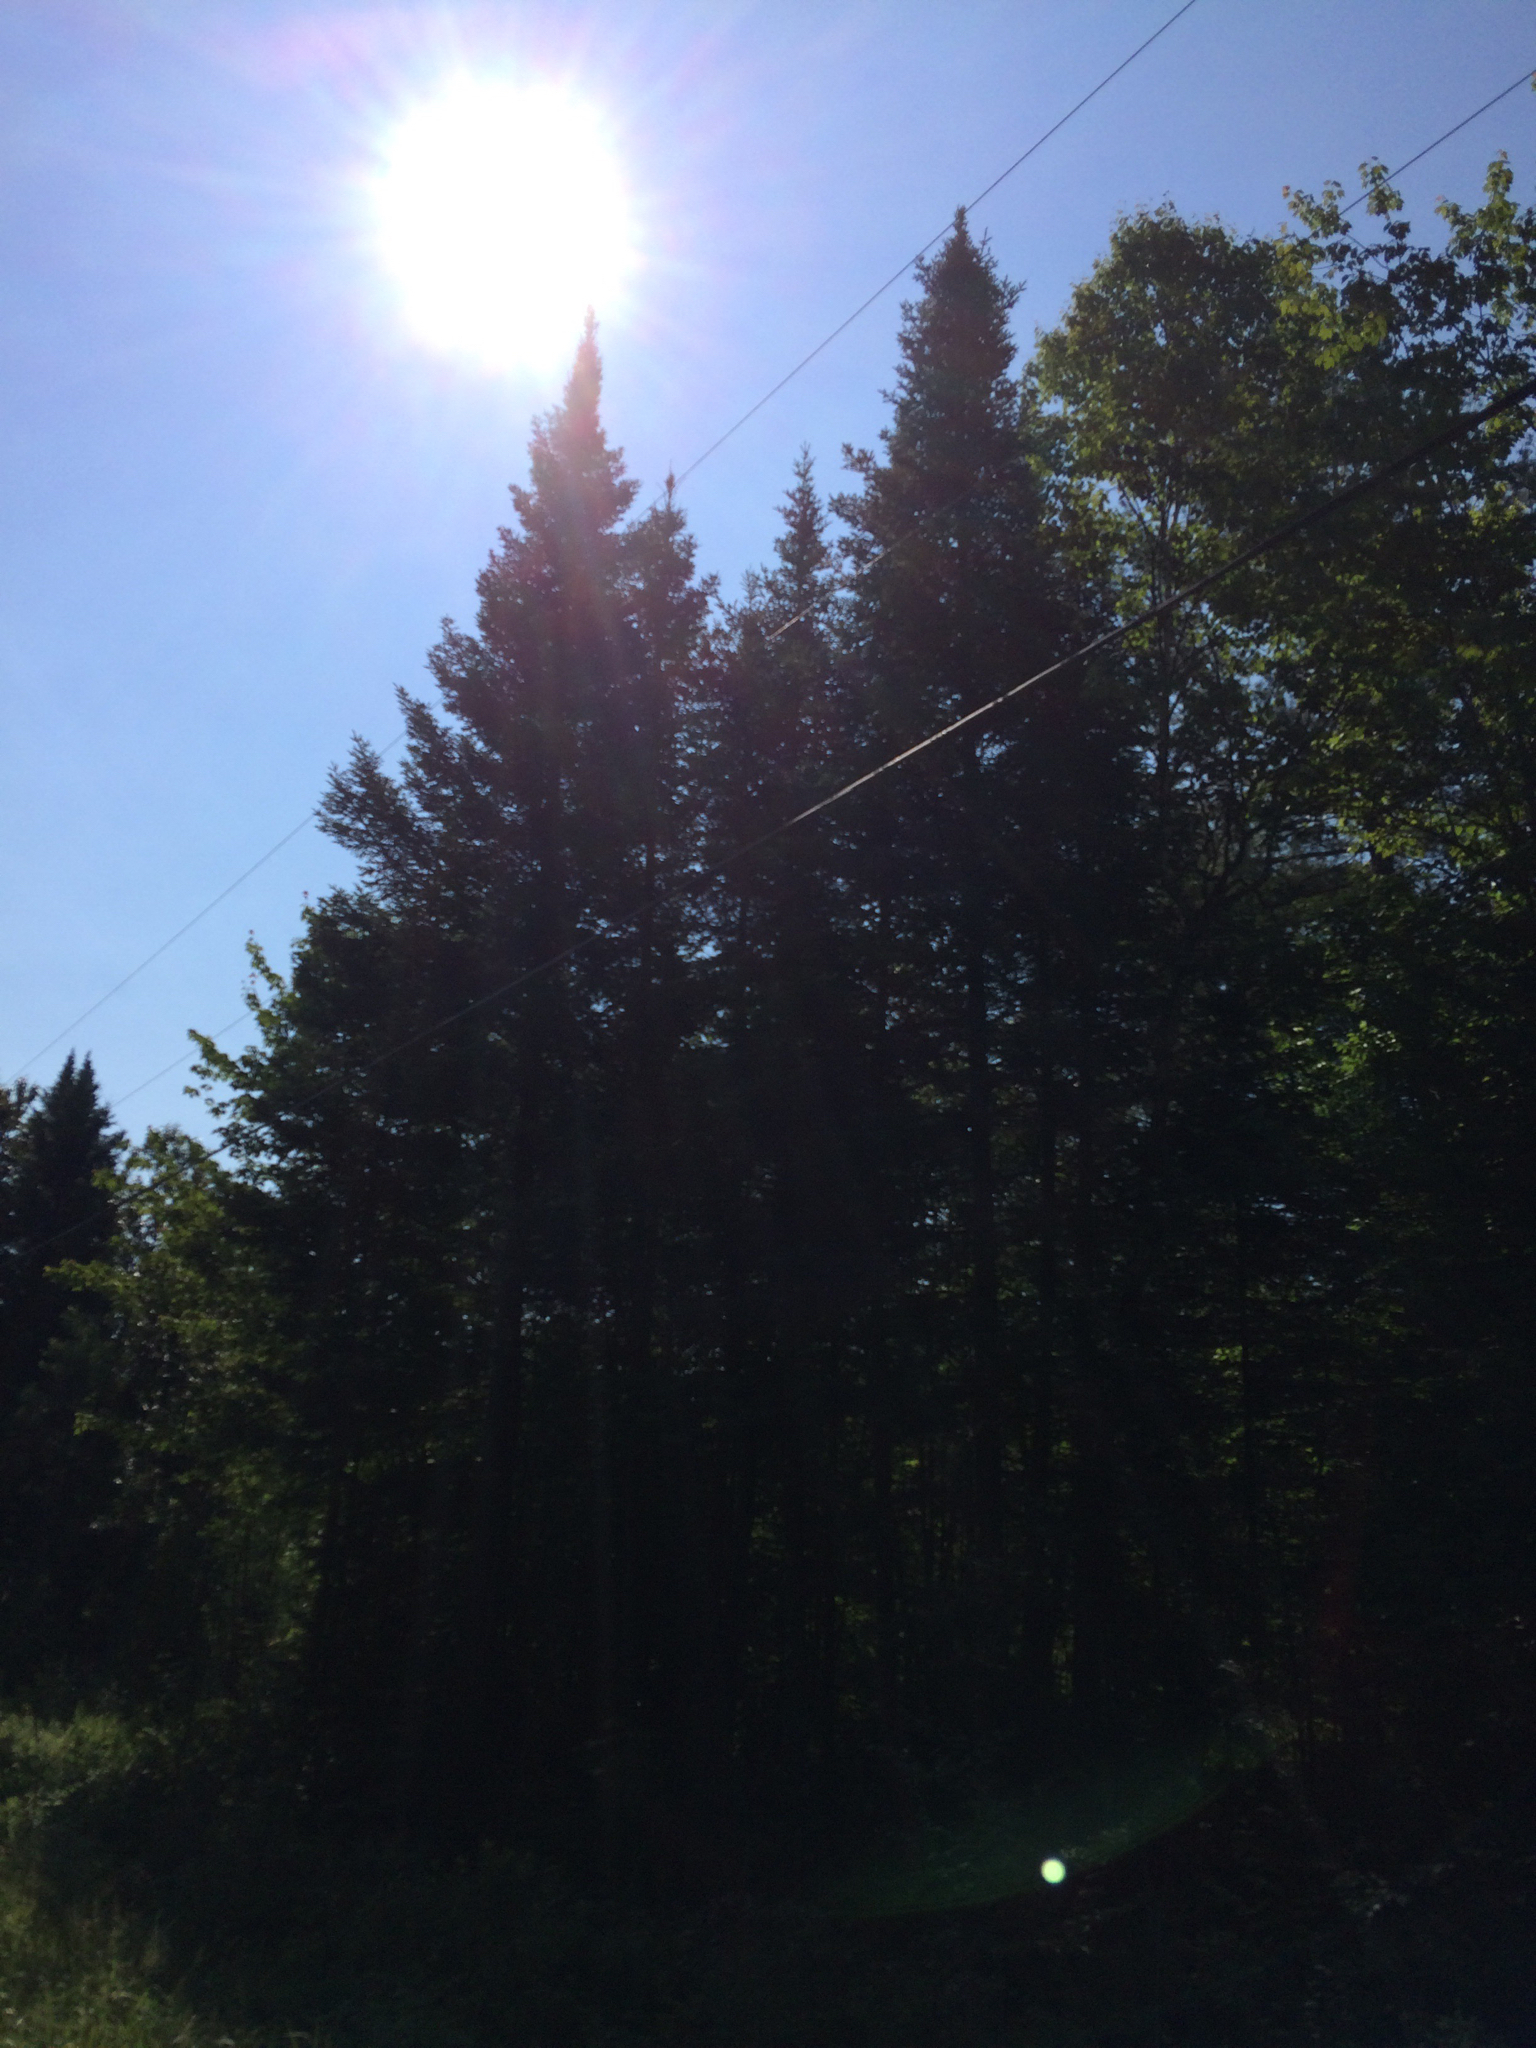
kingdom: Plantae
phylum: Tracheophyta
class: Pinopsida
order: Pinales
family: Pinaceae
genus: Abies
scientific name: Abies balsamea
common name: Balsam fir
